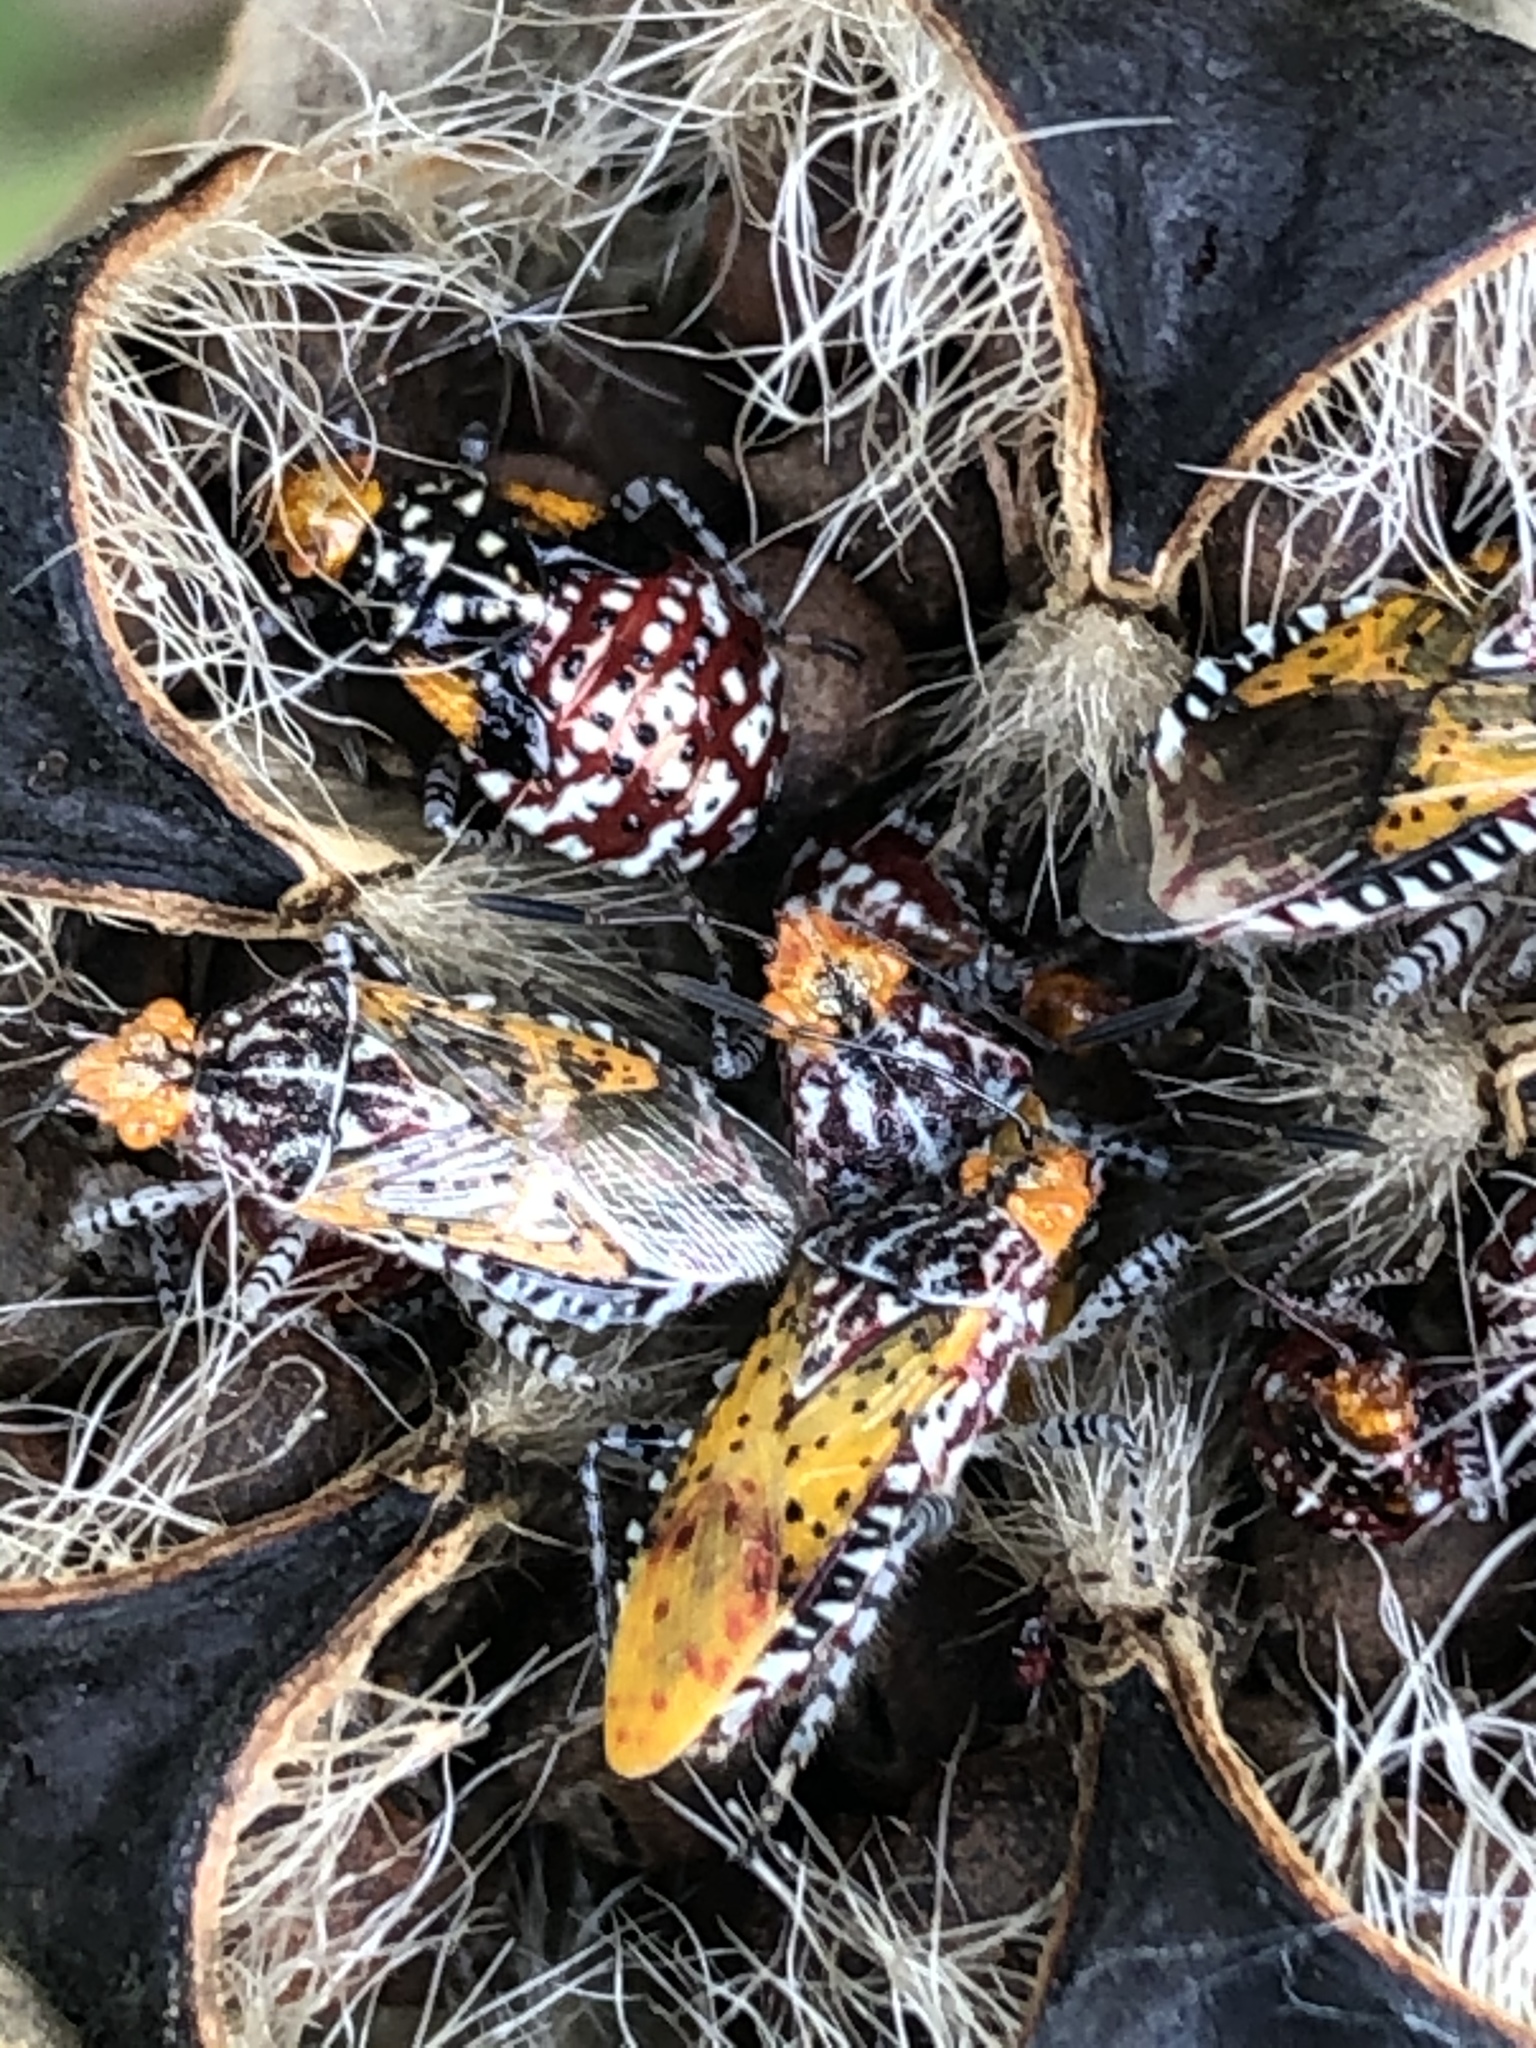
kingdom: Animalia
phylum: Arthropoda
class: Insecta
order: Hemiptera
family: Rhopalidae
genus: Niesthrea
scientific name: Niesthrea louisianica
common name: Scentless plant bug
